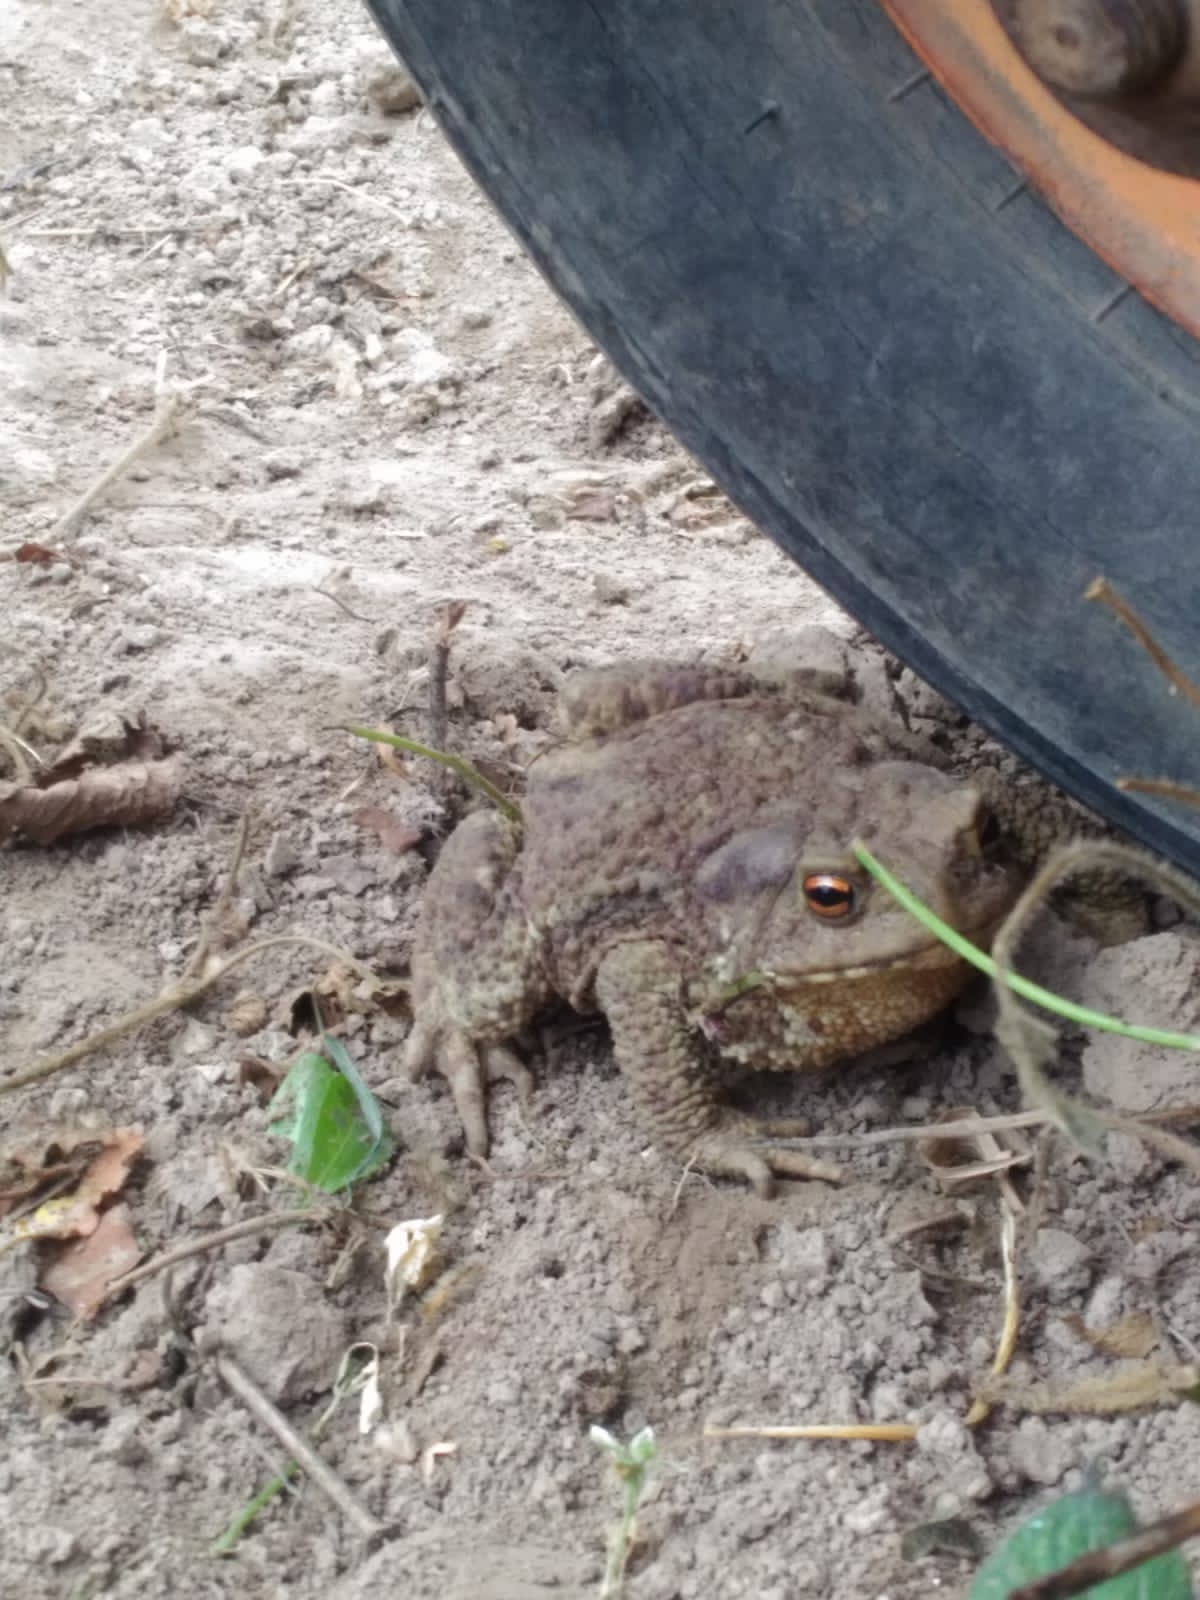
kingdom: Animalia
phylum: Chordata
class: Amphibia
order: Anura
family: Bufonidae
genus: Bufo
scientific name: Bufo bufo
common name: Common toad
